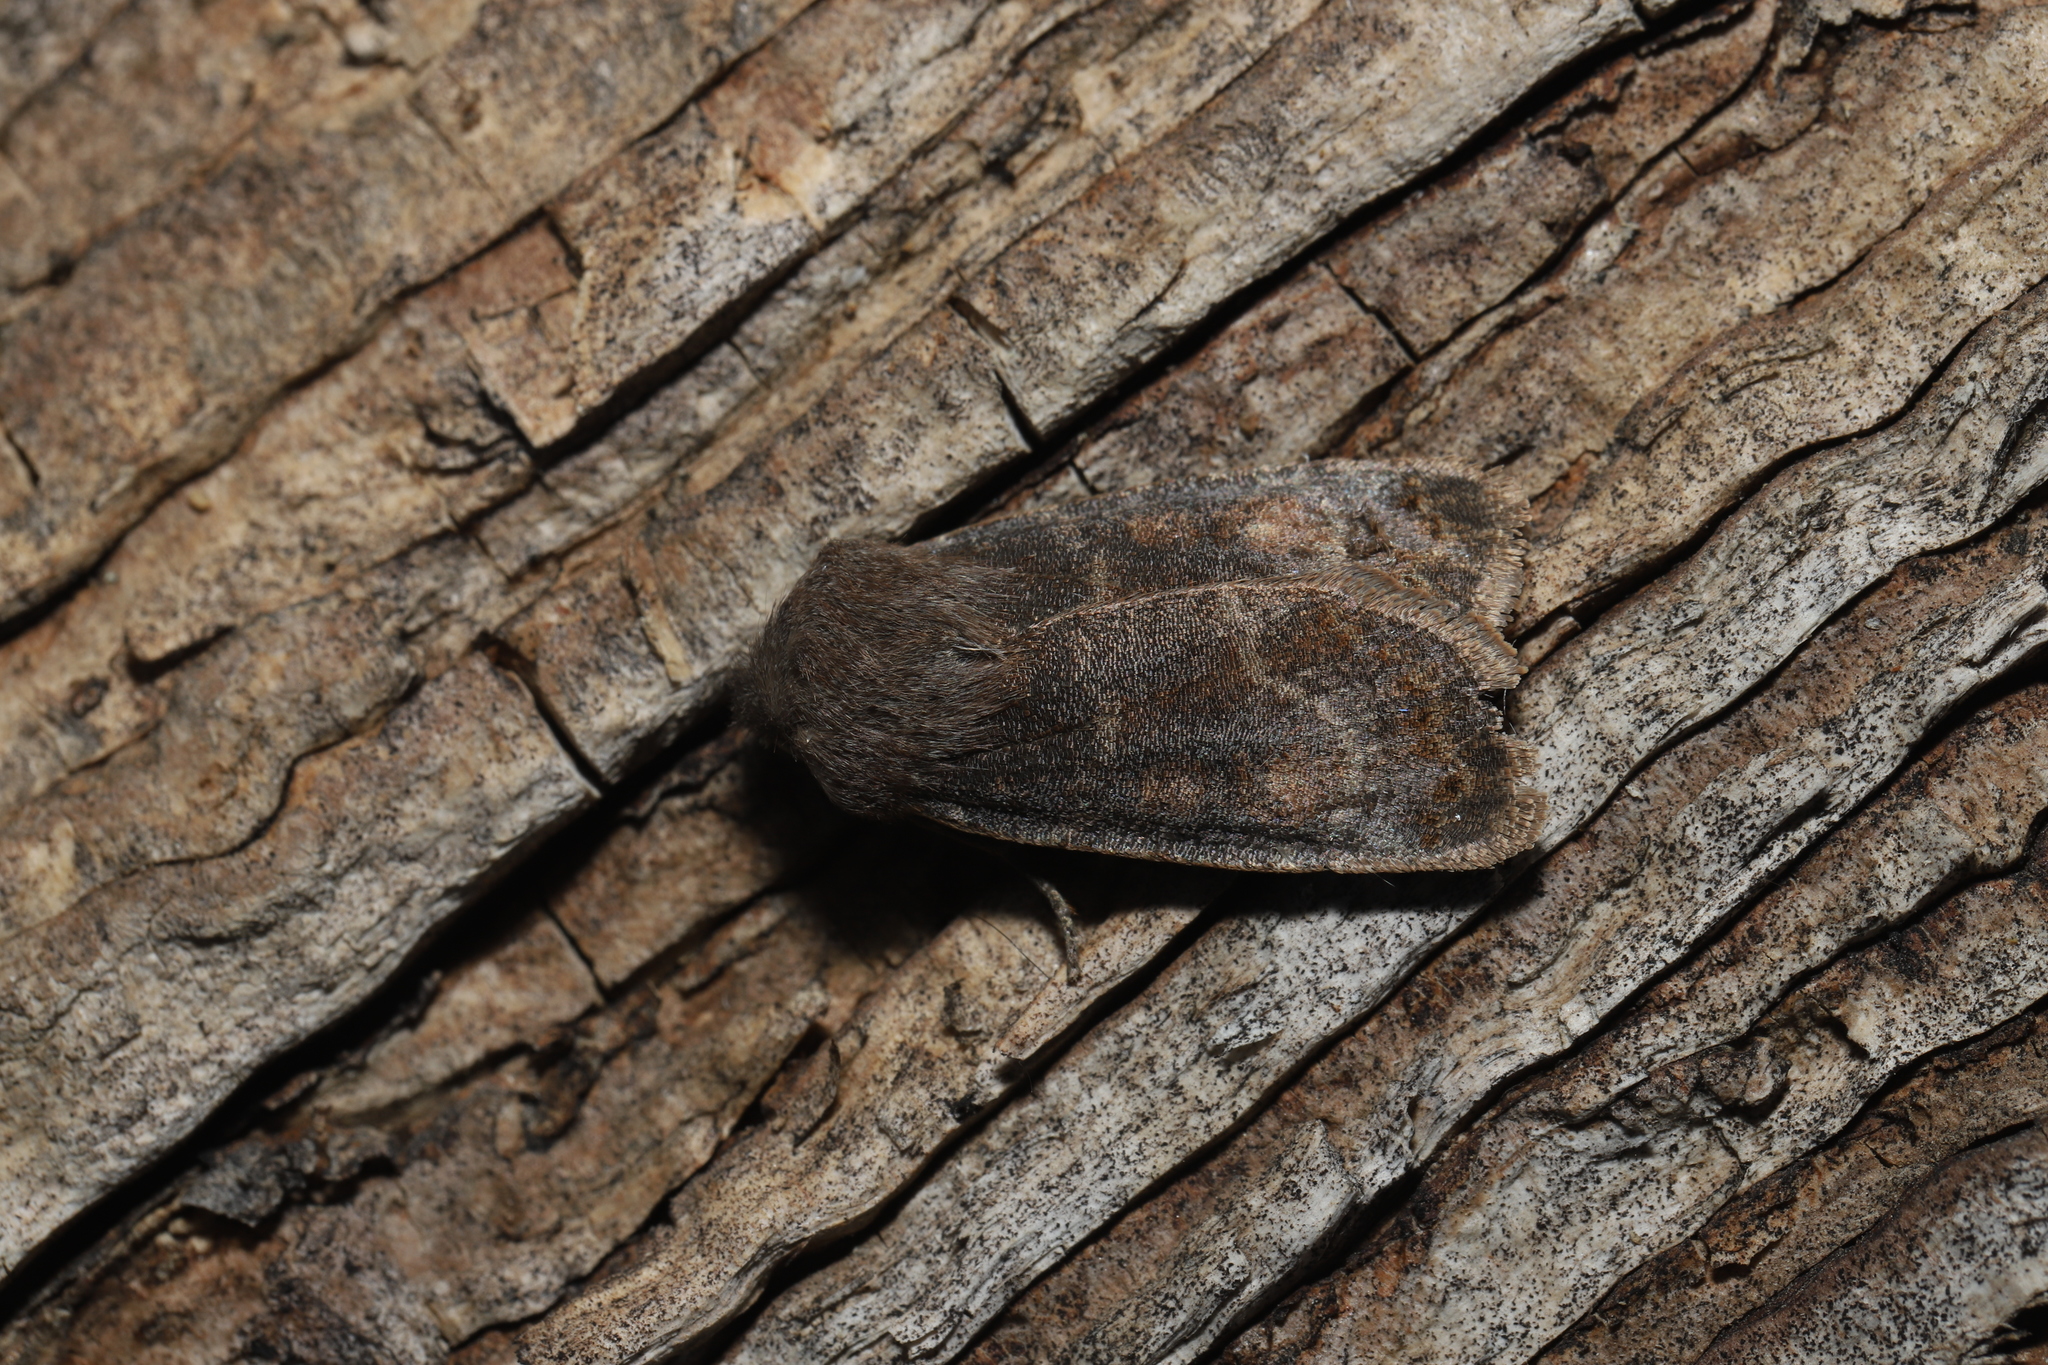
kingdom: Animalia
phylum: Arthropoda
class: Insecta
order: Lepidoptera
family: Noctuidae
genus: Homoglaea
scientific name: Homoglaea hircina
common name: Goat sallow
